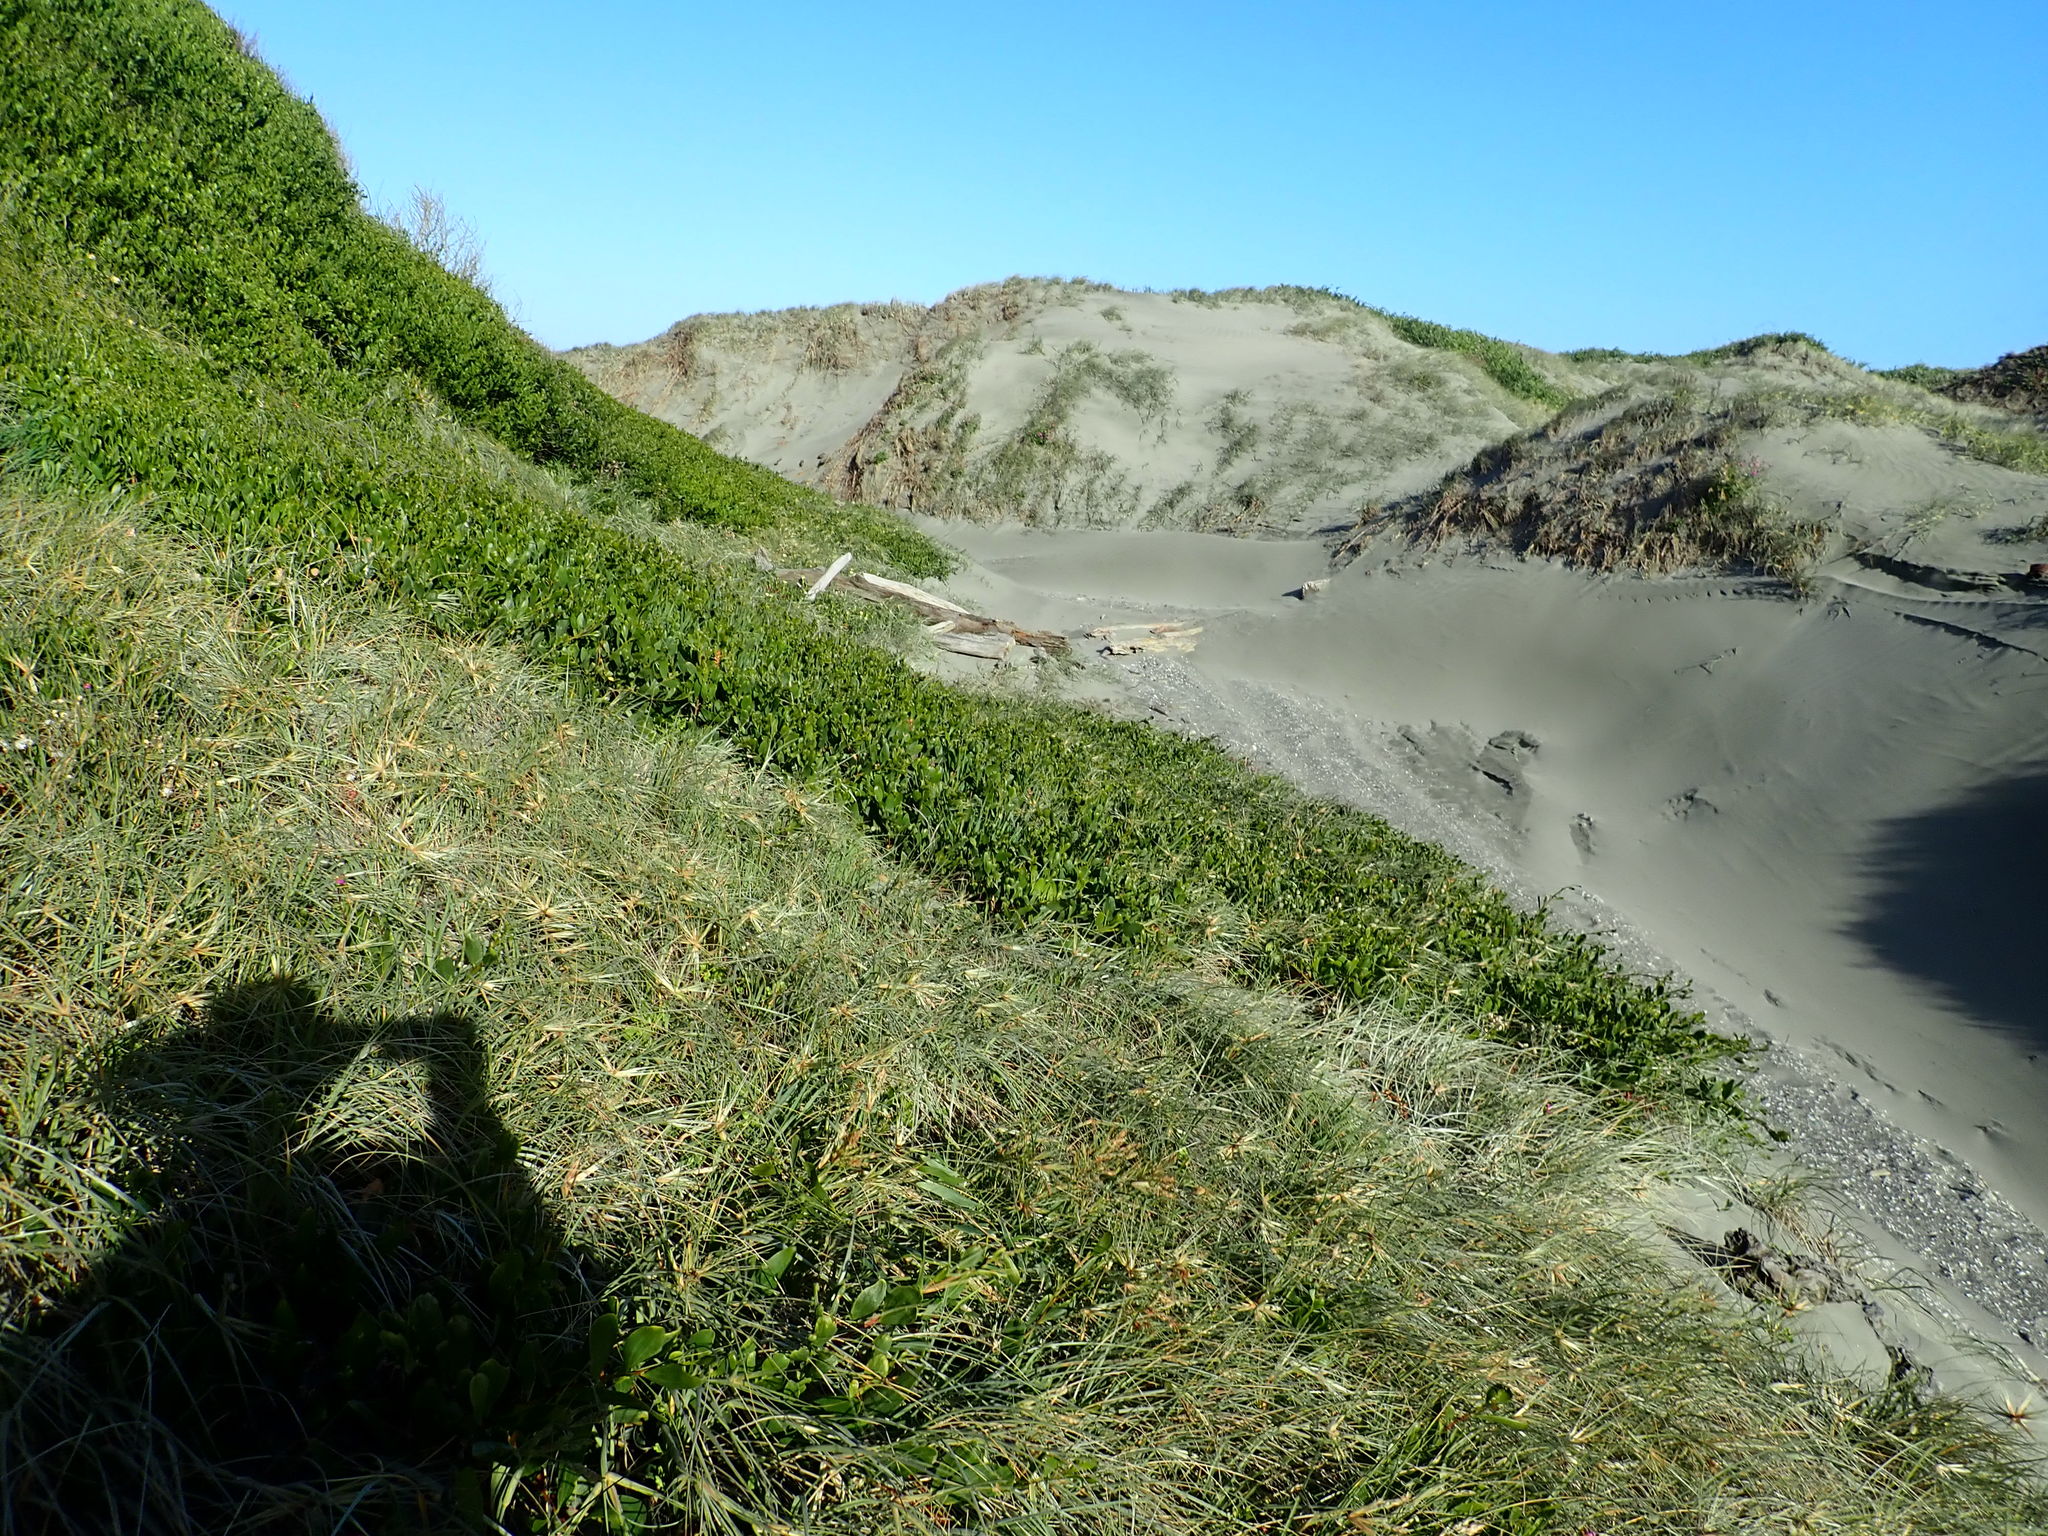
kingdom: Plantae
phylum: Tracheophyta
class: Magnoliopsida
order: Fabales
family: Fabaceae
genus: Acacia
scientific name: Acacia longifolia
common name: Sydney golden wattle
